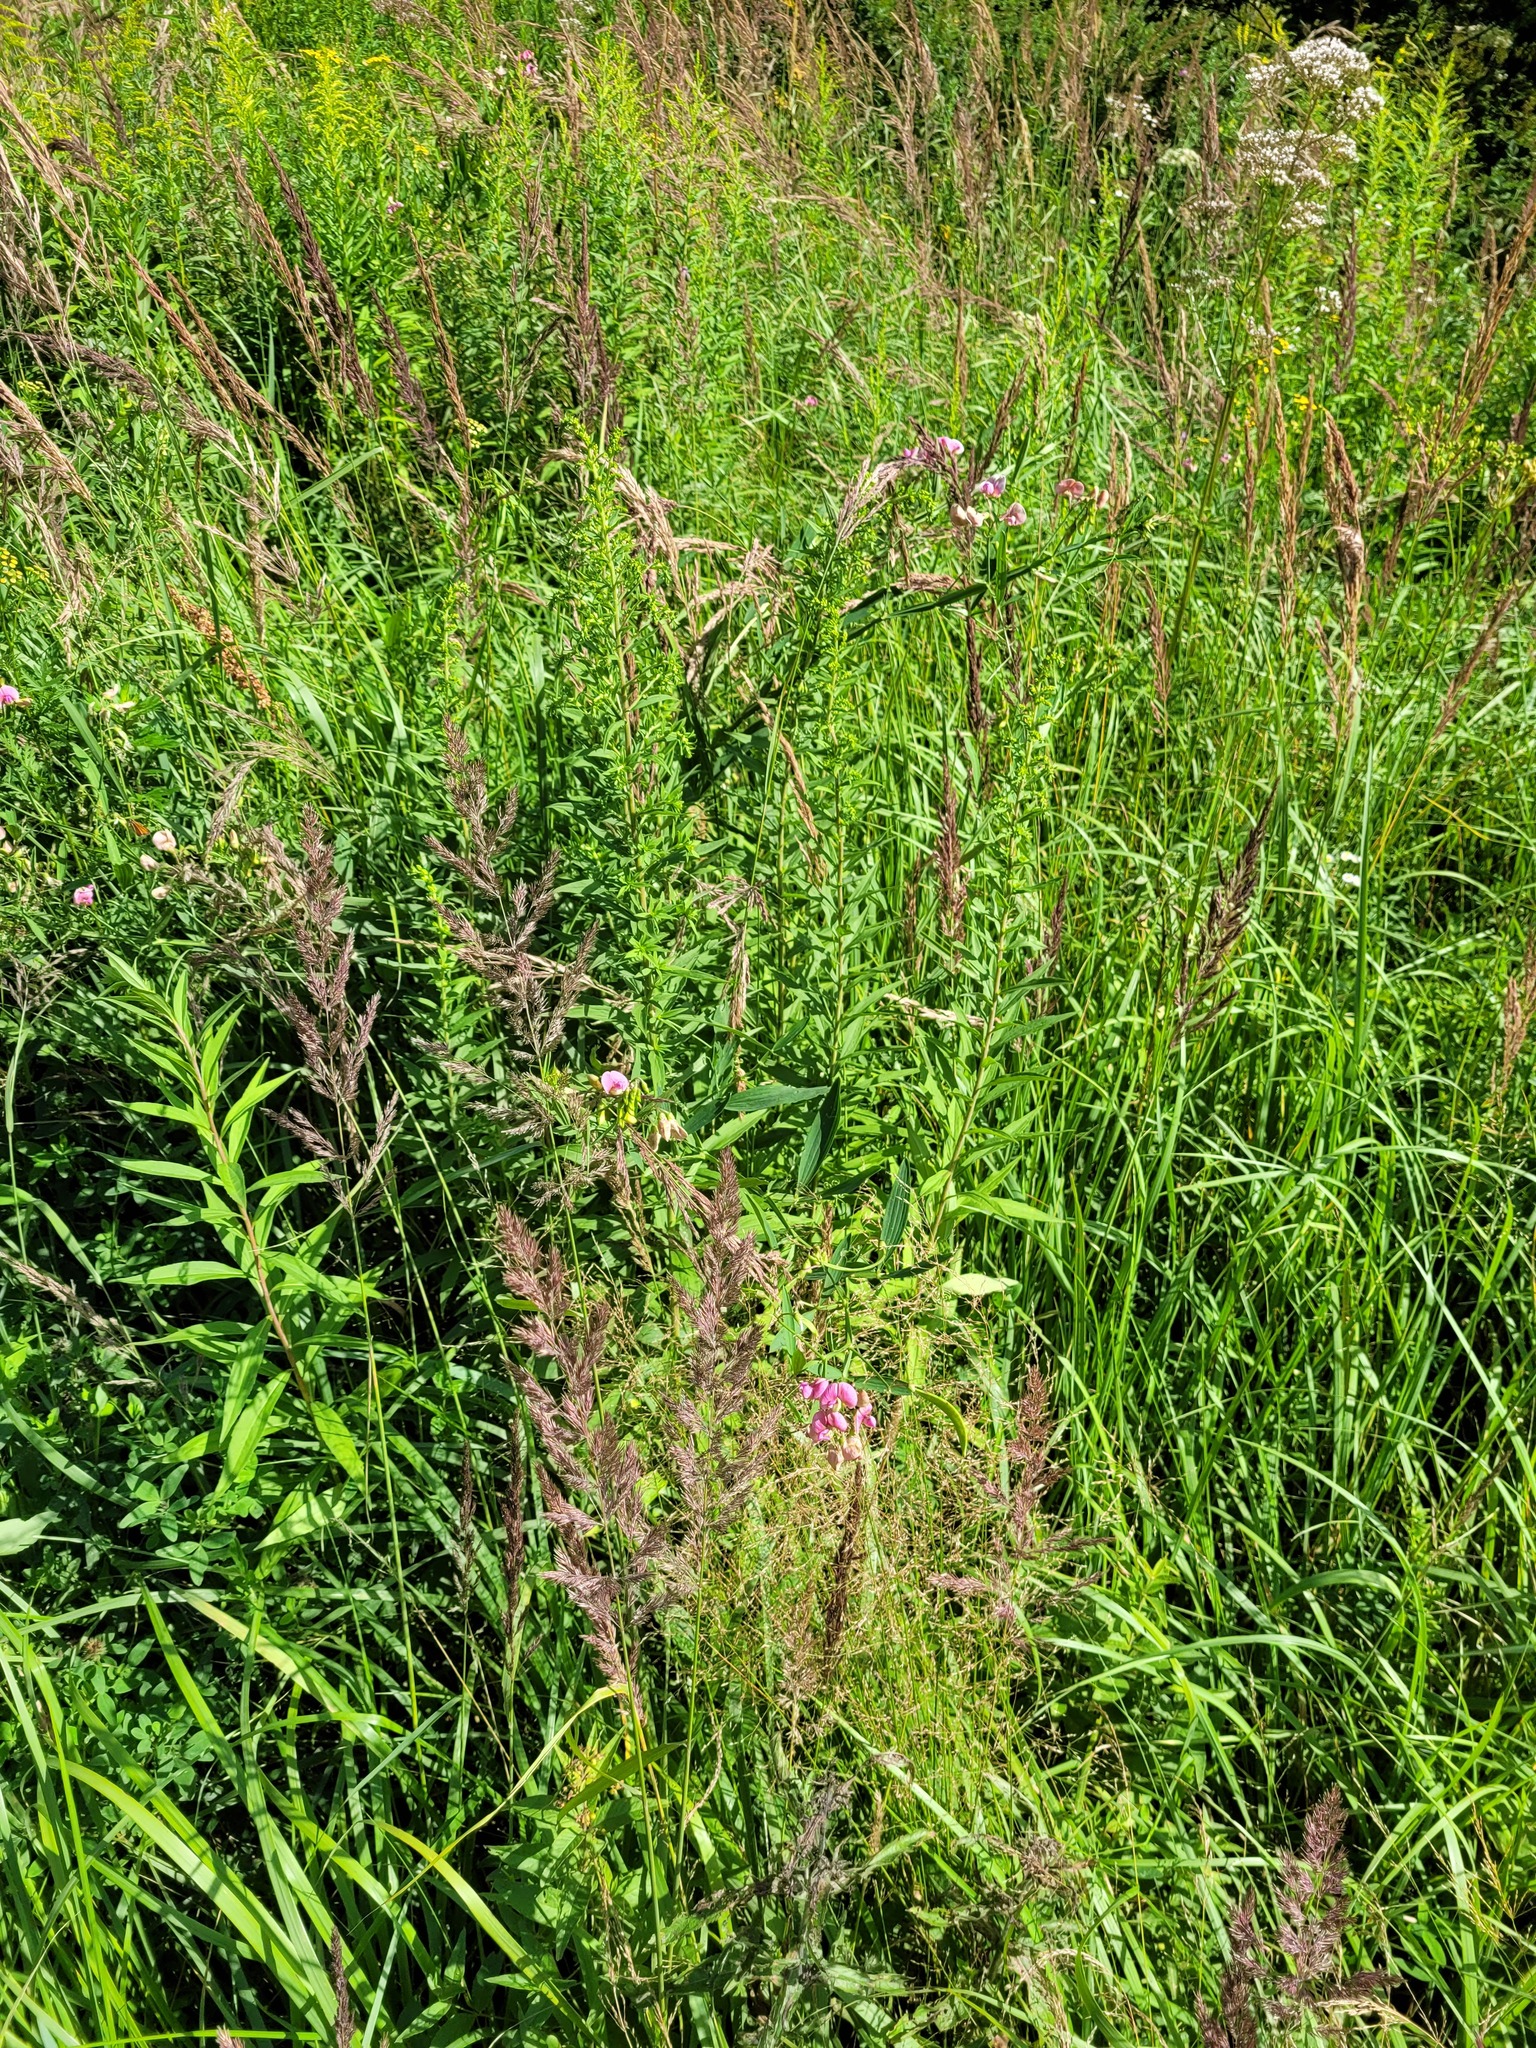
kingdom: Plantae
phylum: Tracheophyta
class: Magnoliopsida
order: Fabales
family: Fabaceae
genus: Lathyrus
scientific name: Lathyrus sylvestris
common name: Flat pea
